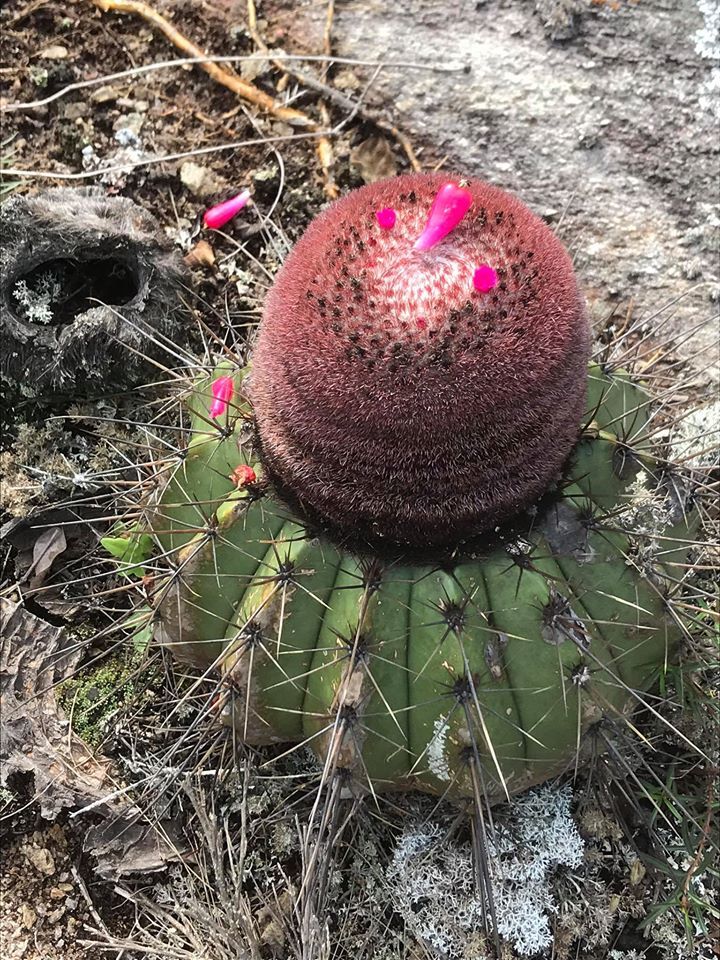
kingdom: Plantae
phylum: Tracheophyta
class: Magnoliopsida
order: Caryophyllales
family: Cactaceae
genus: Melocactus
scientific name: Melocactus ernestii
